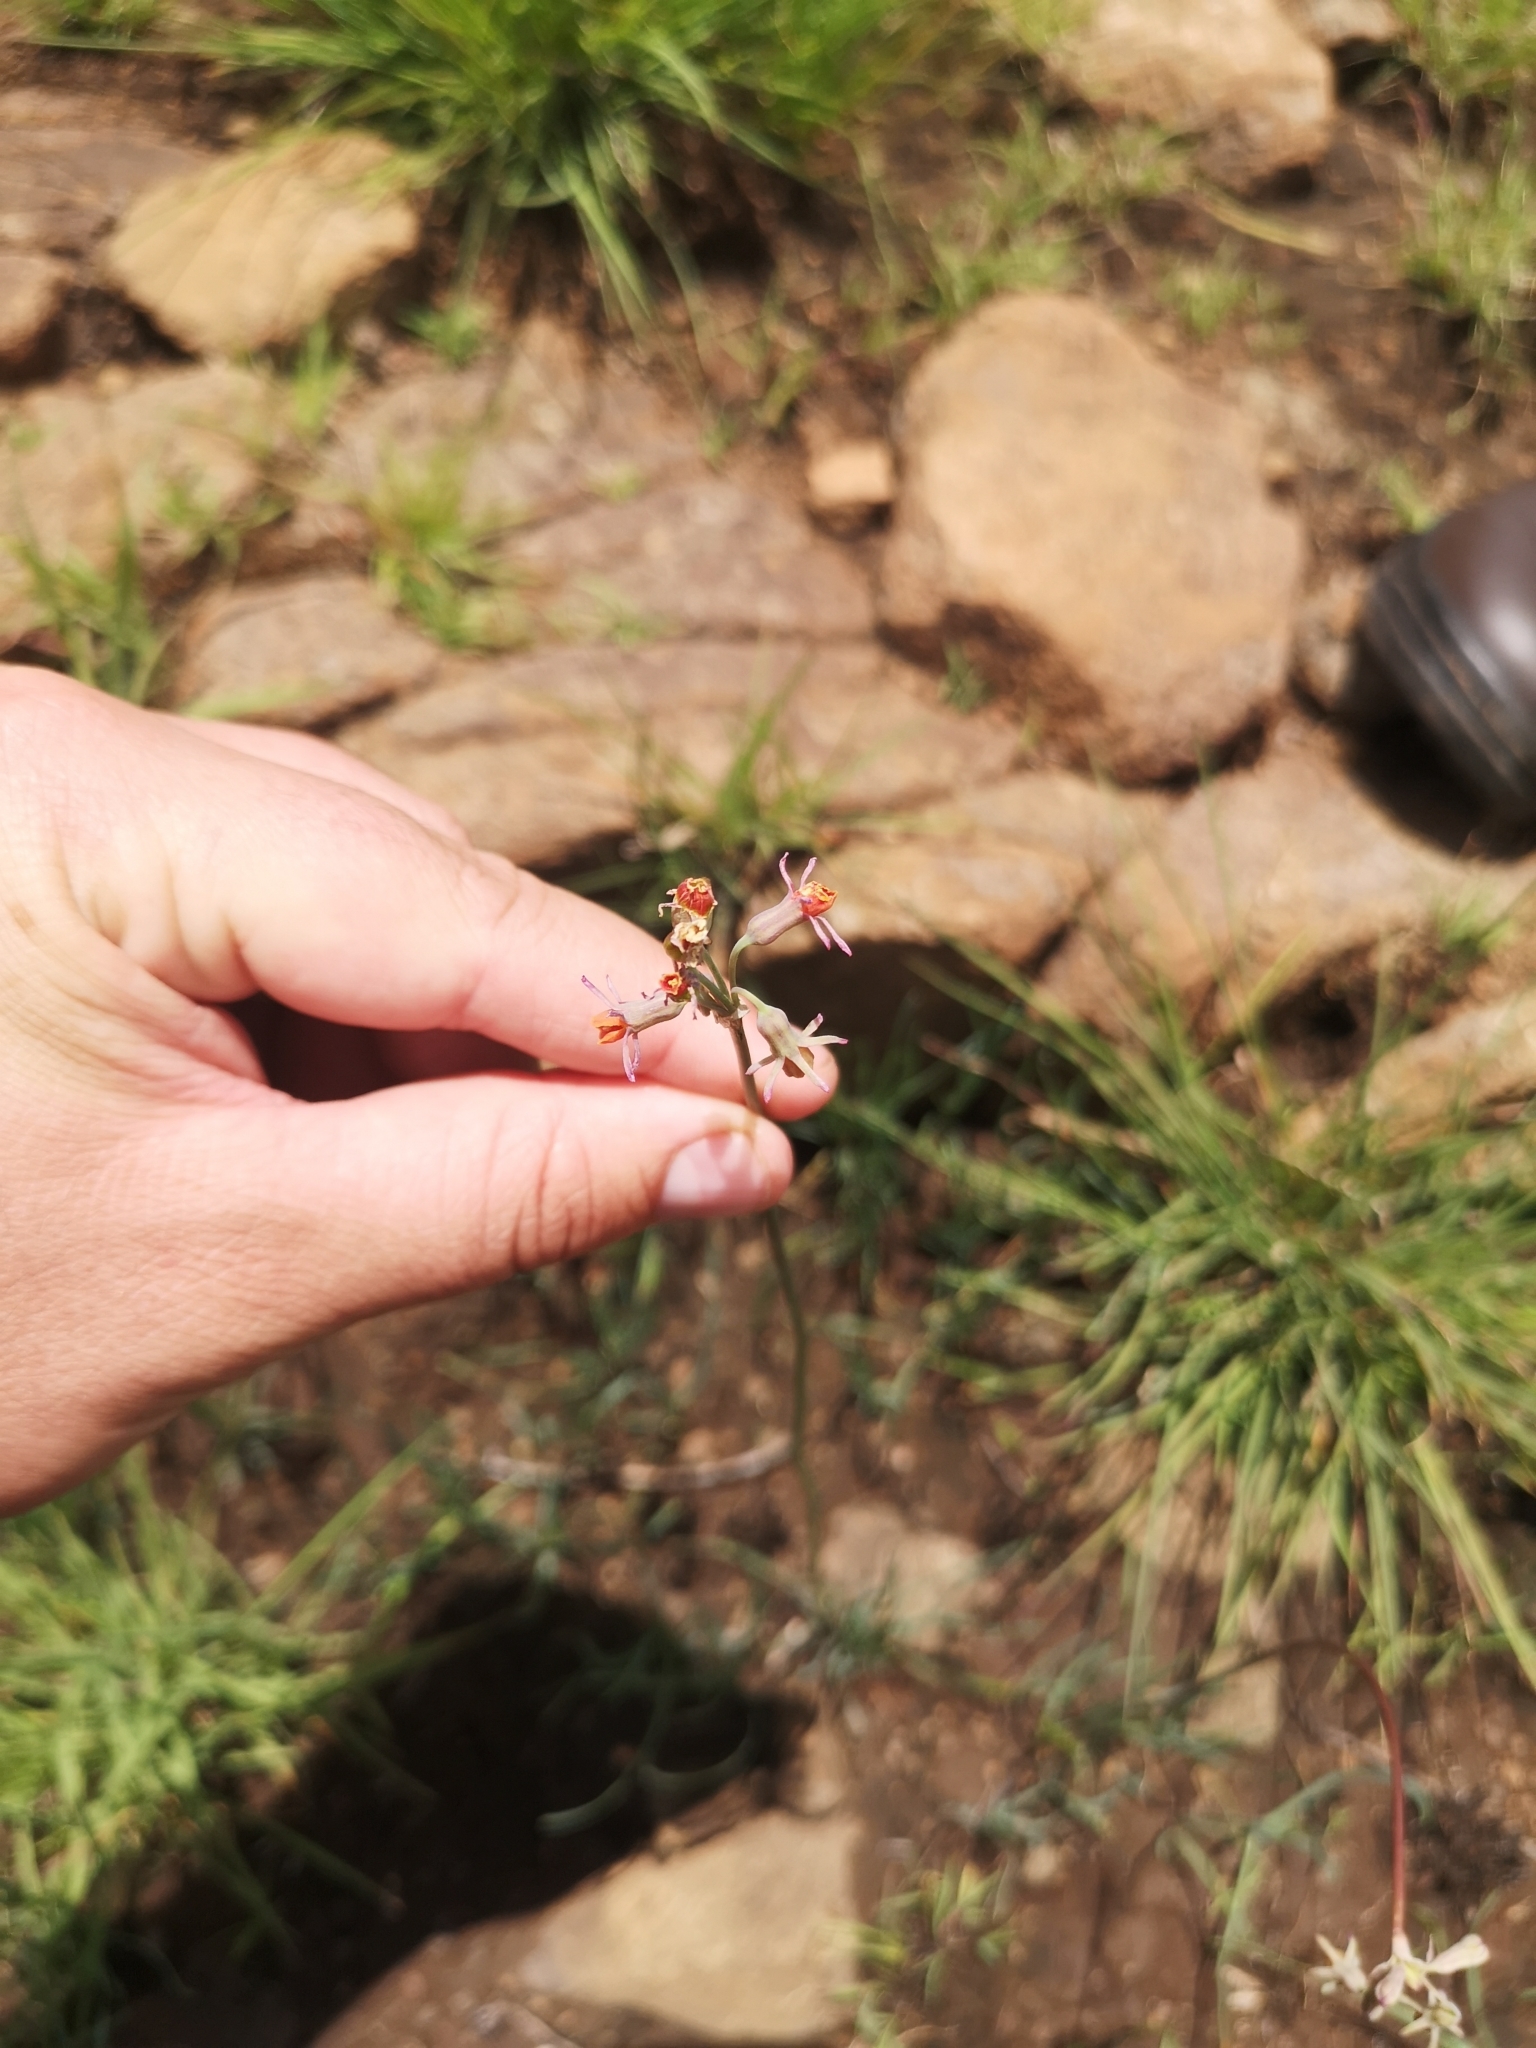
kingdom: Plantae
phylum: Tracheophyta
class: Liliopsida
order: Asparagales
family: Amaryllidaceae
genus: Tulbaghia
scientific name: Tulbaghia leucantha
